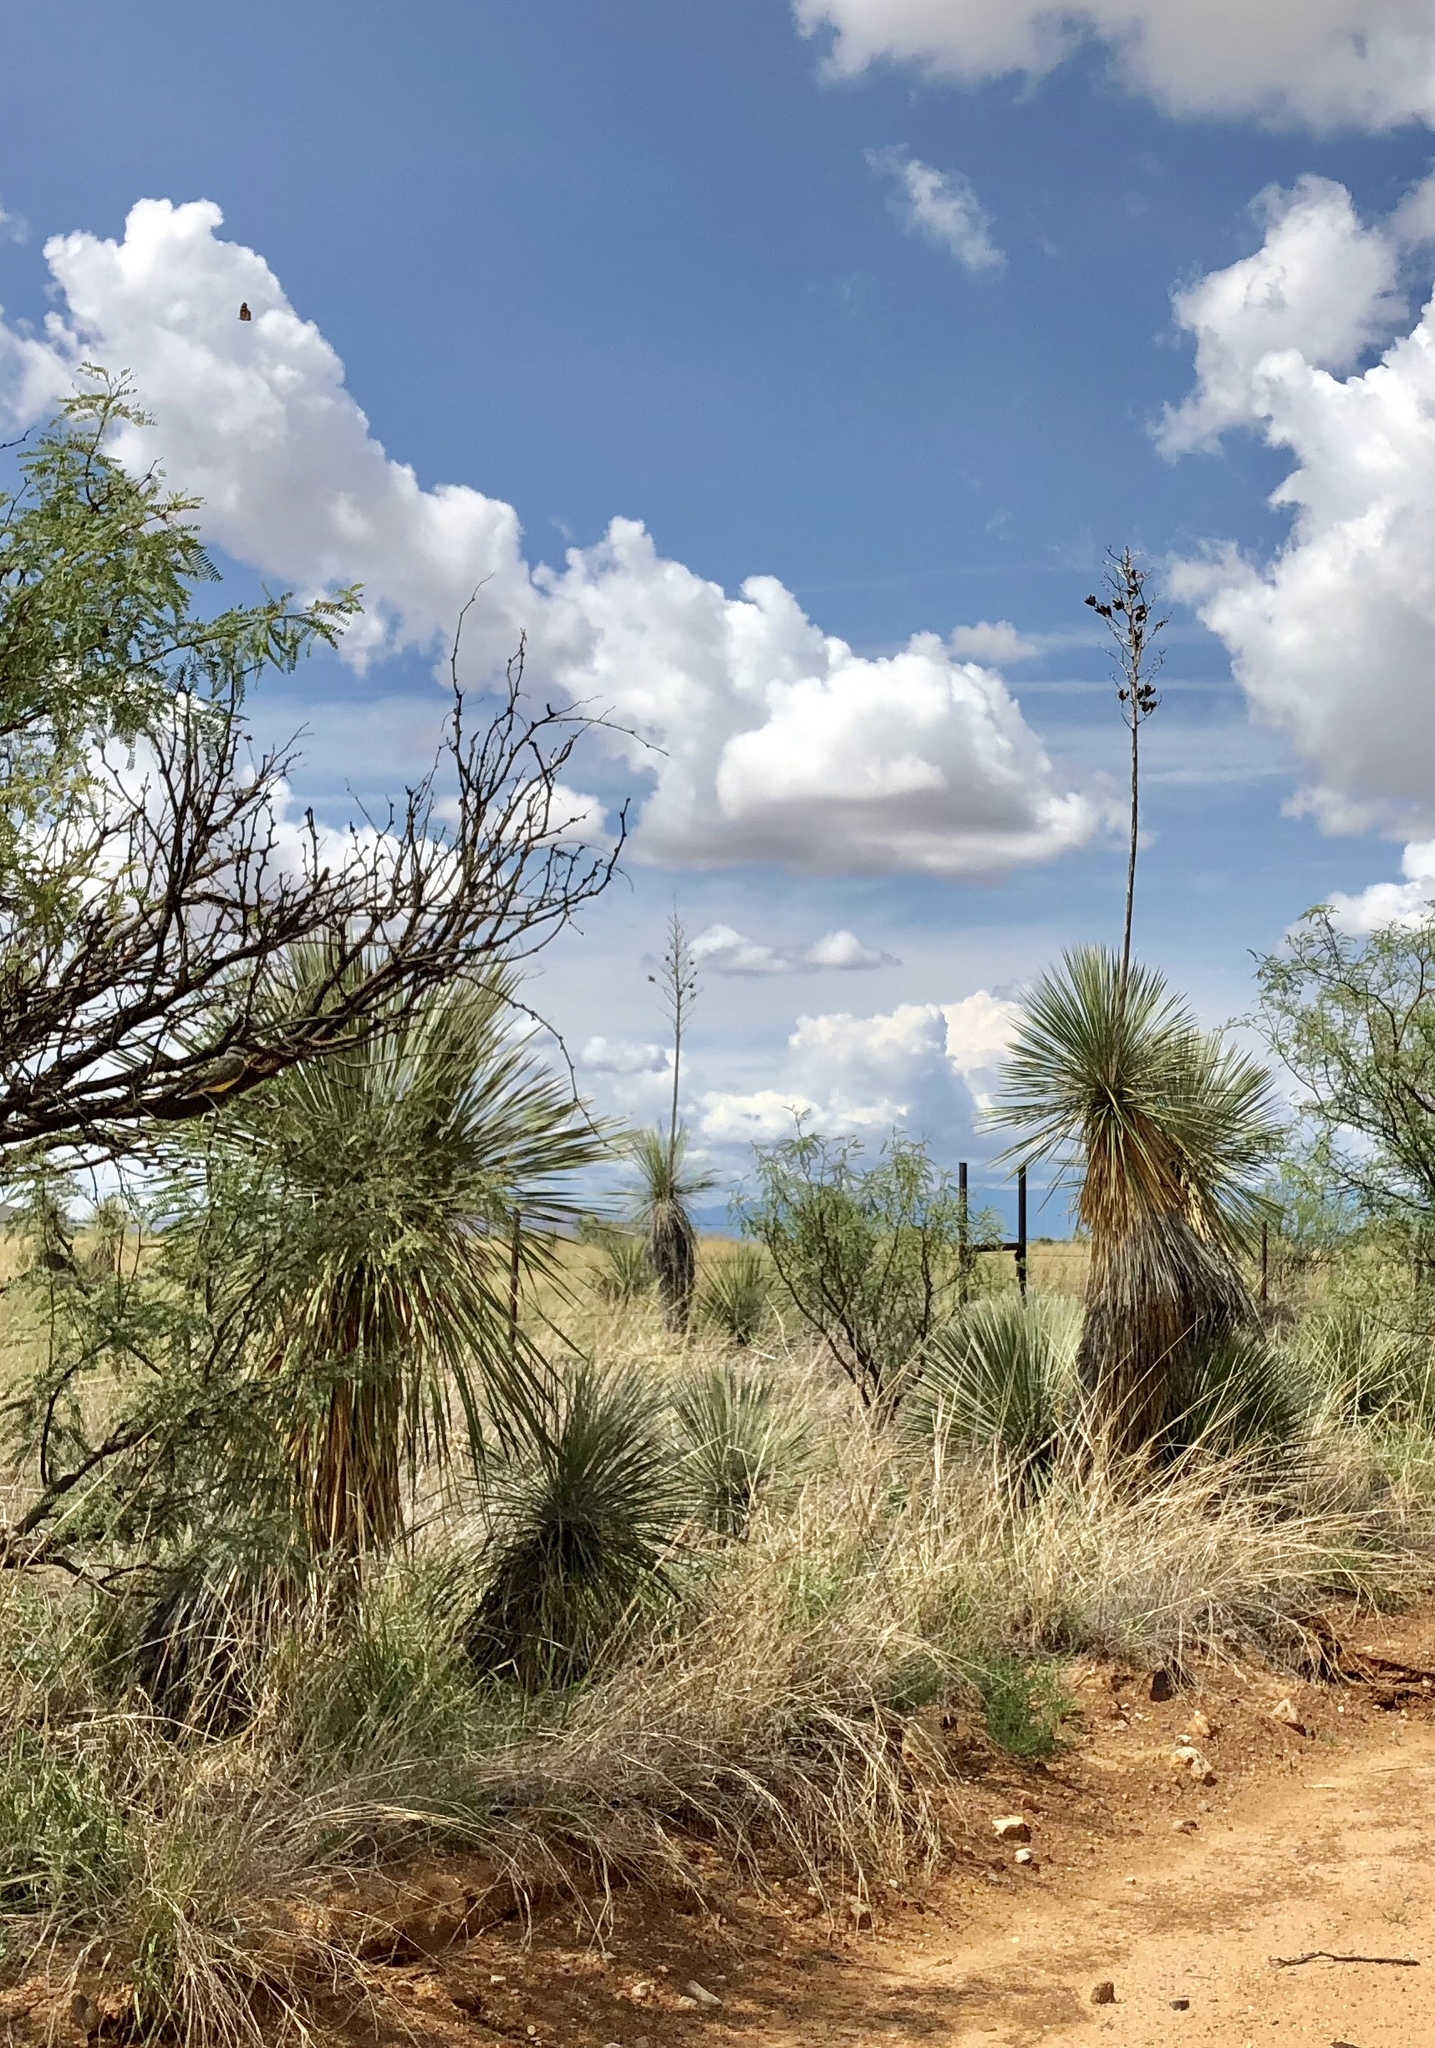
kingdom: Plantae
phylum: Tracheophyta
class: Liliopsida
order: Asparagales
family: Asparagaceae
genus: Yucca
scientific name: Yucca elata
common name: Palmella
